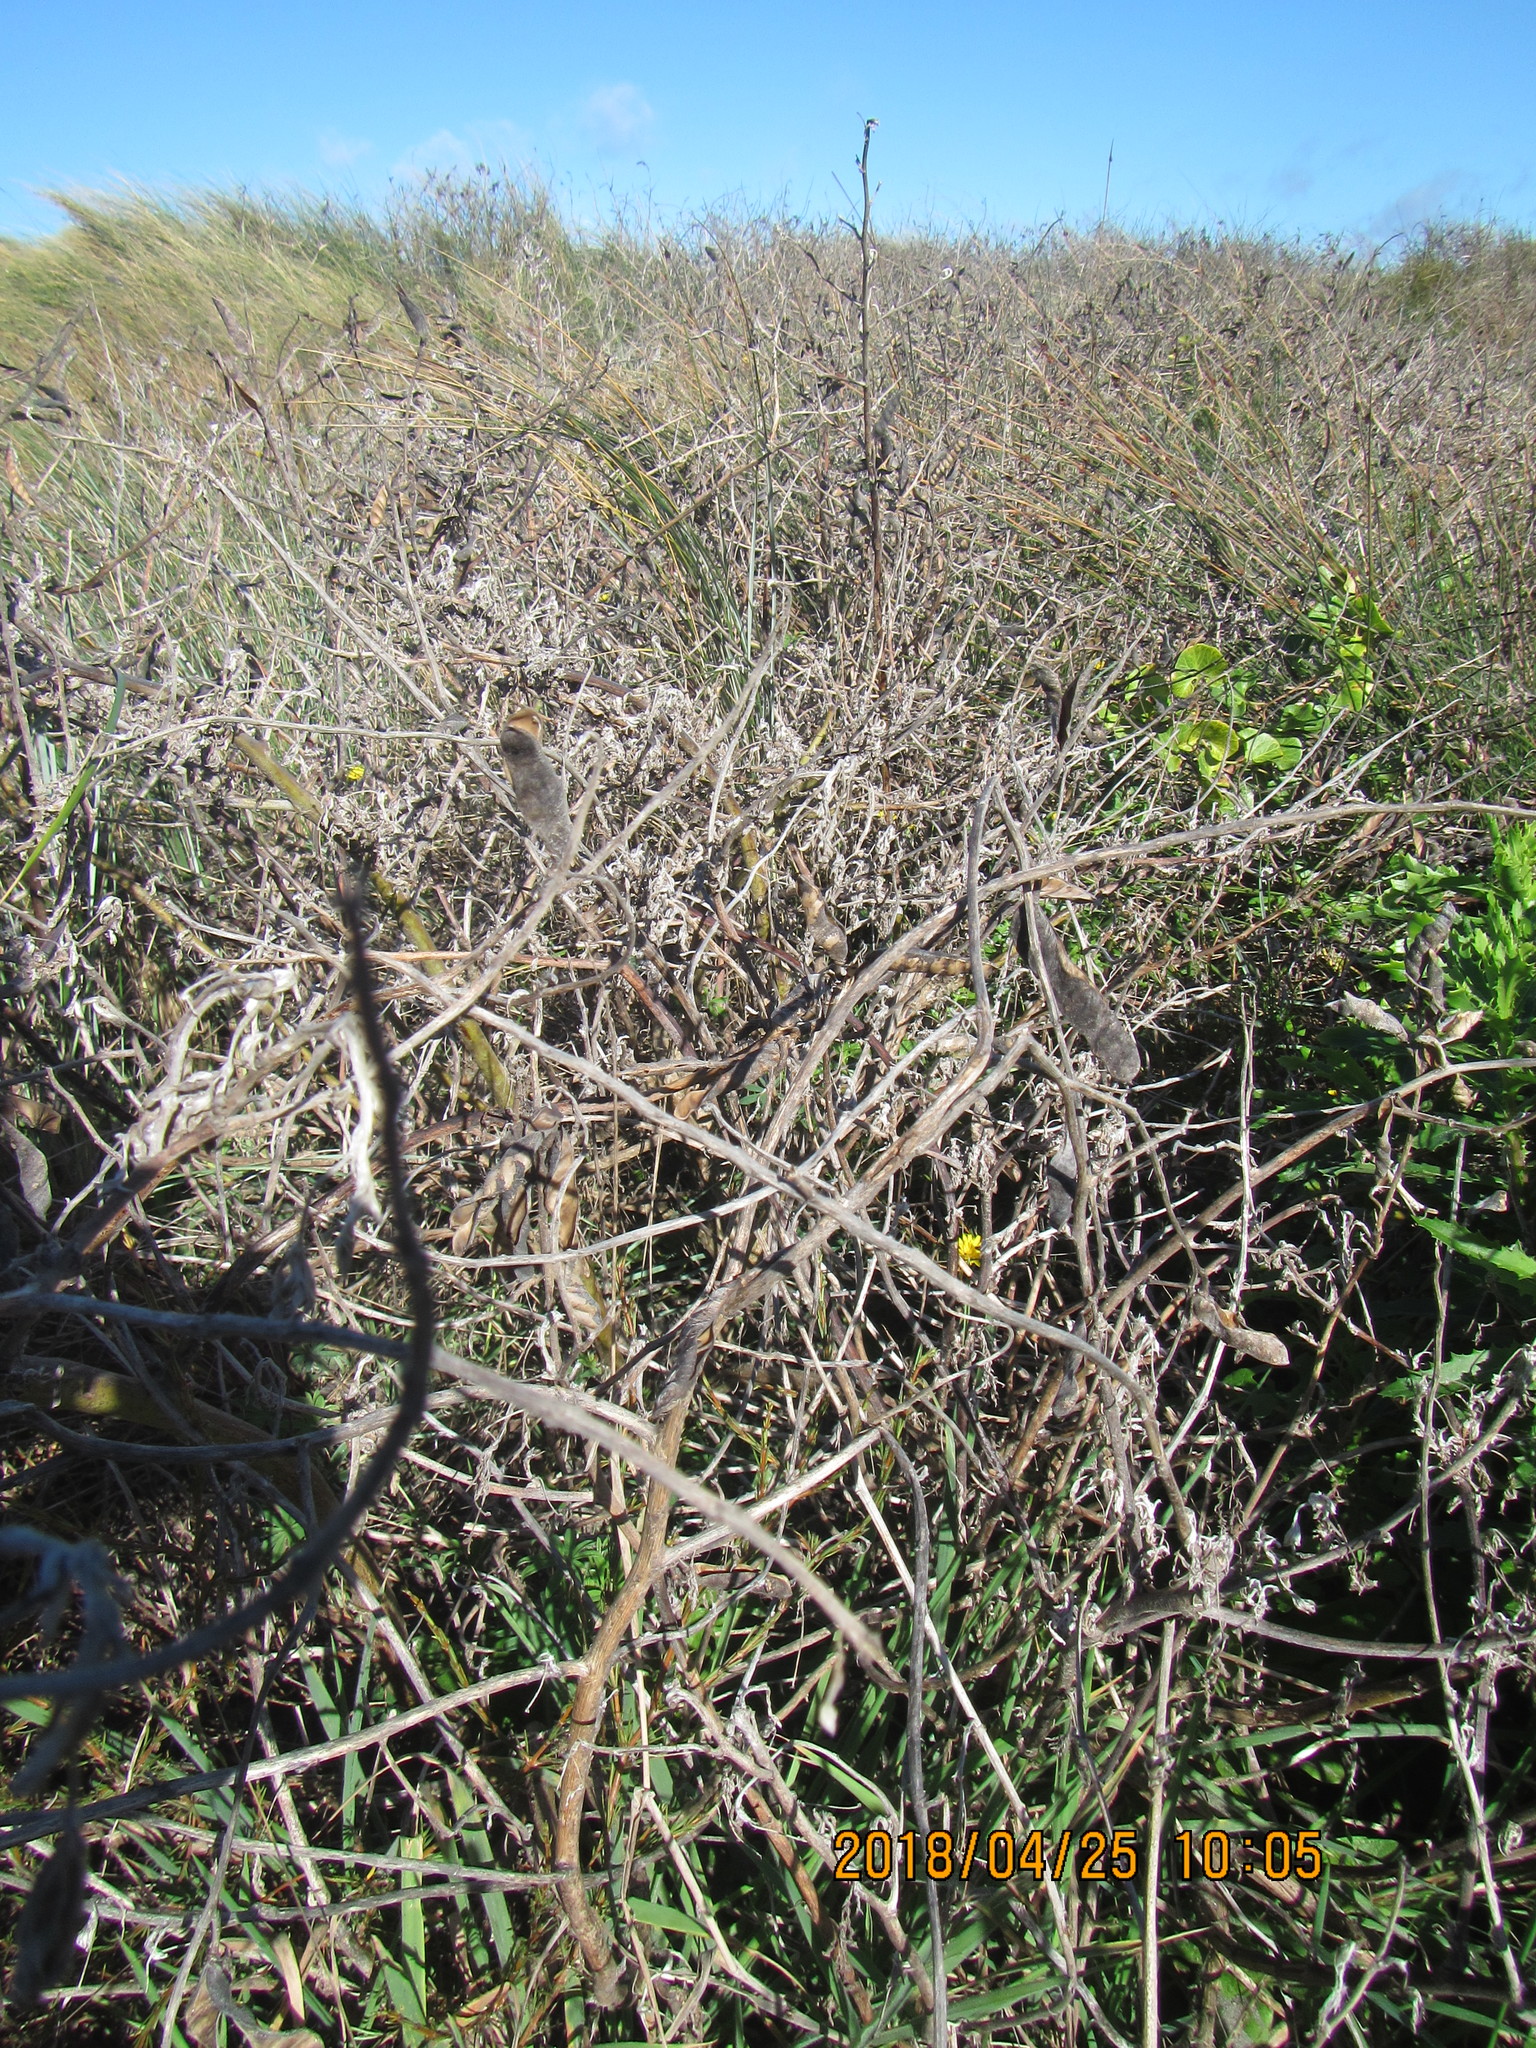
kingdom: Plantae
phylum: Tracheophyta
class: Magnoliopsida
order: Fabales
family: Fabaceae
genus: Lupinus
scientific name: Lupinus arboreus
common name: Yellow bush lupine
